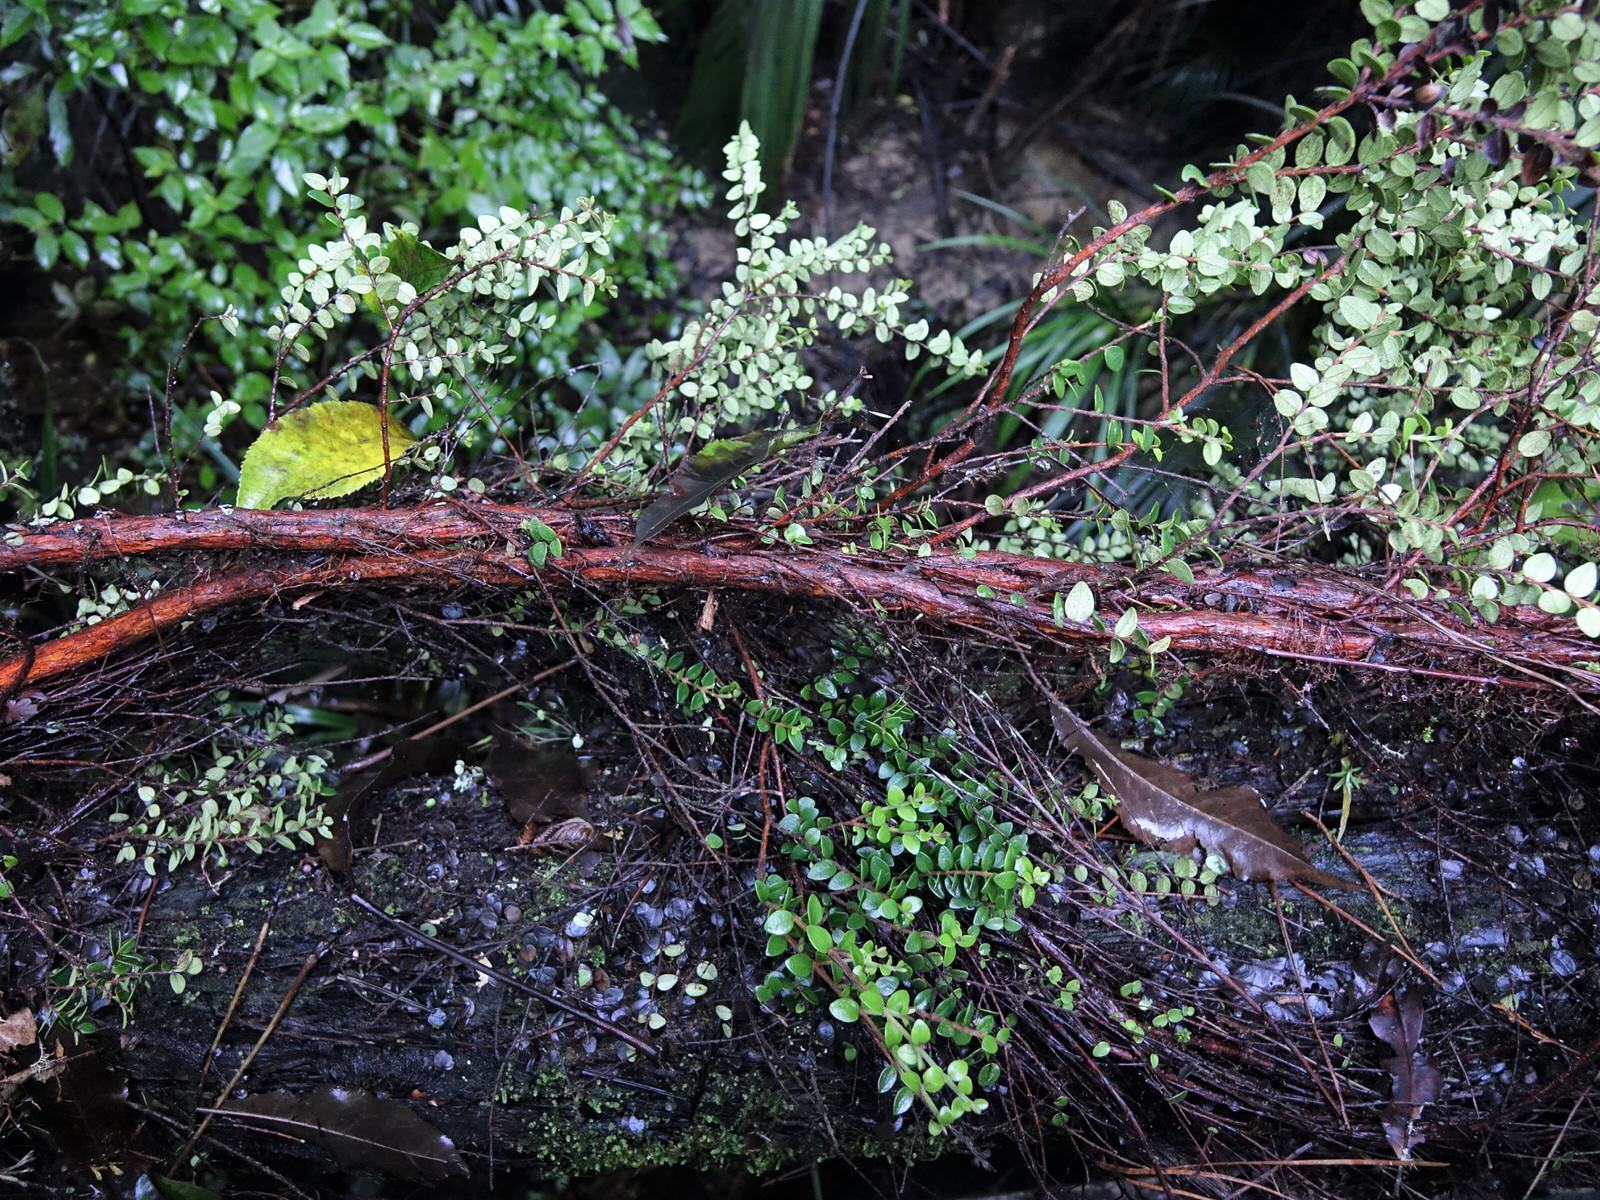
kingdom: Plantae
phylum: Tracheophyta
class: Magnoliopsida
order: Myrtales
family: Myrtaceae
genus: Metrosideros
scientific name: Metrosideros perforata
